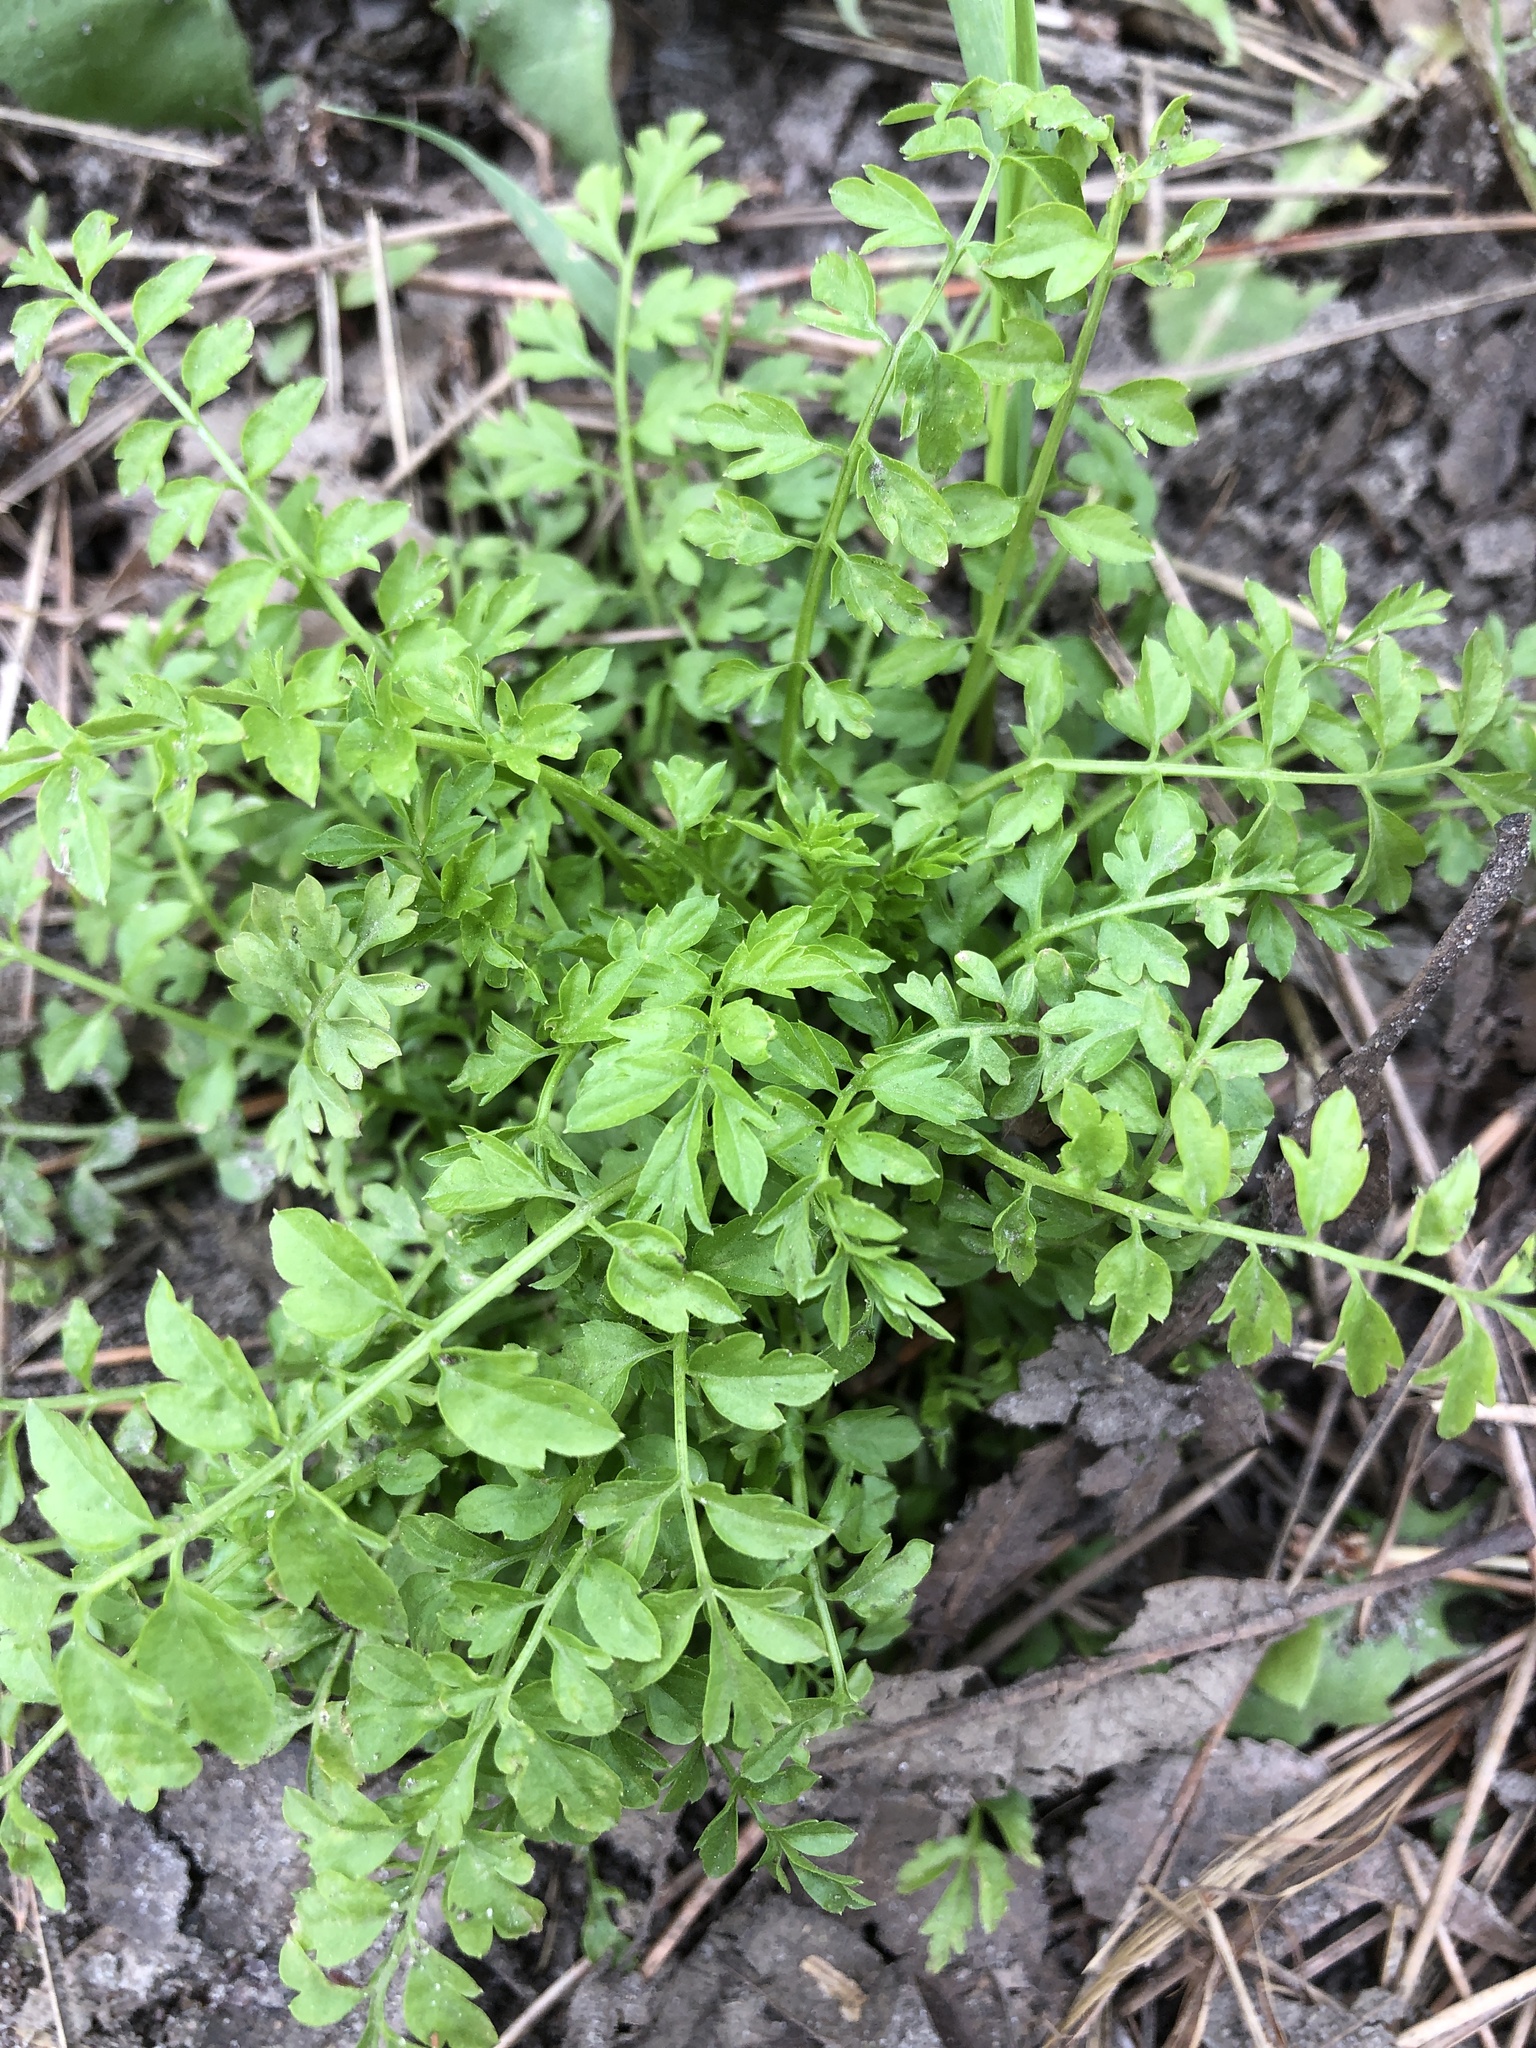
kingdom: Plantae
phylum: Tracheophyta
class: Magnoliopsida
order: Brassicales
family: Brassicaceae
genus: Cardamine
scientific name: Cardamine impatiens
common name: Narrow-leaved bitter-cress
